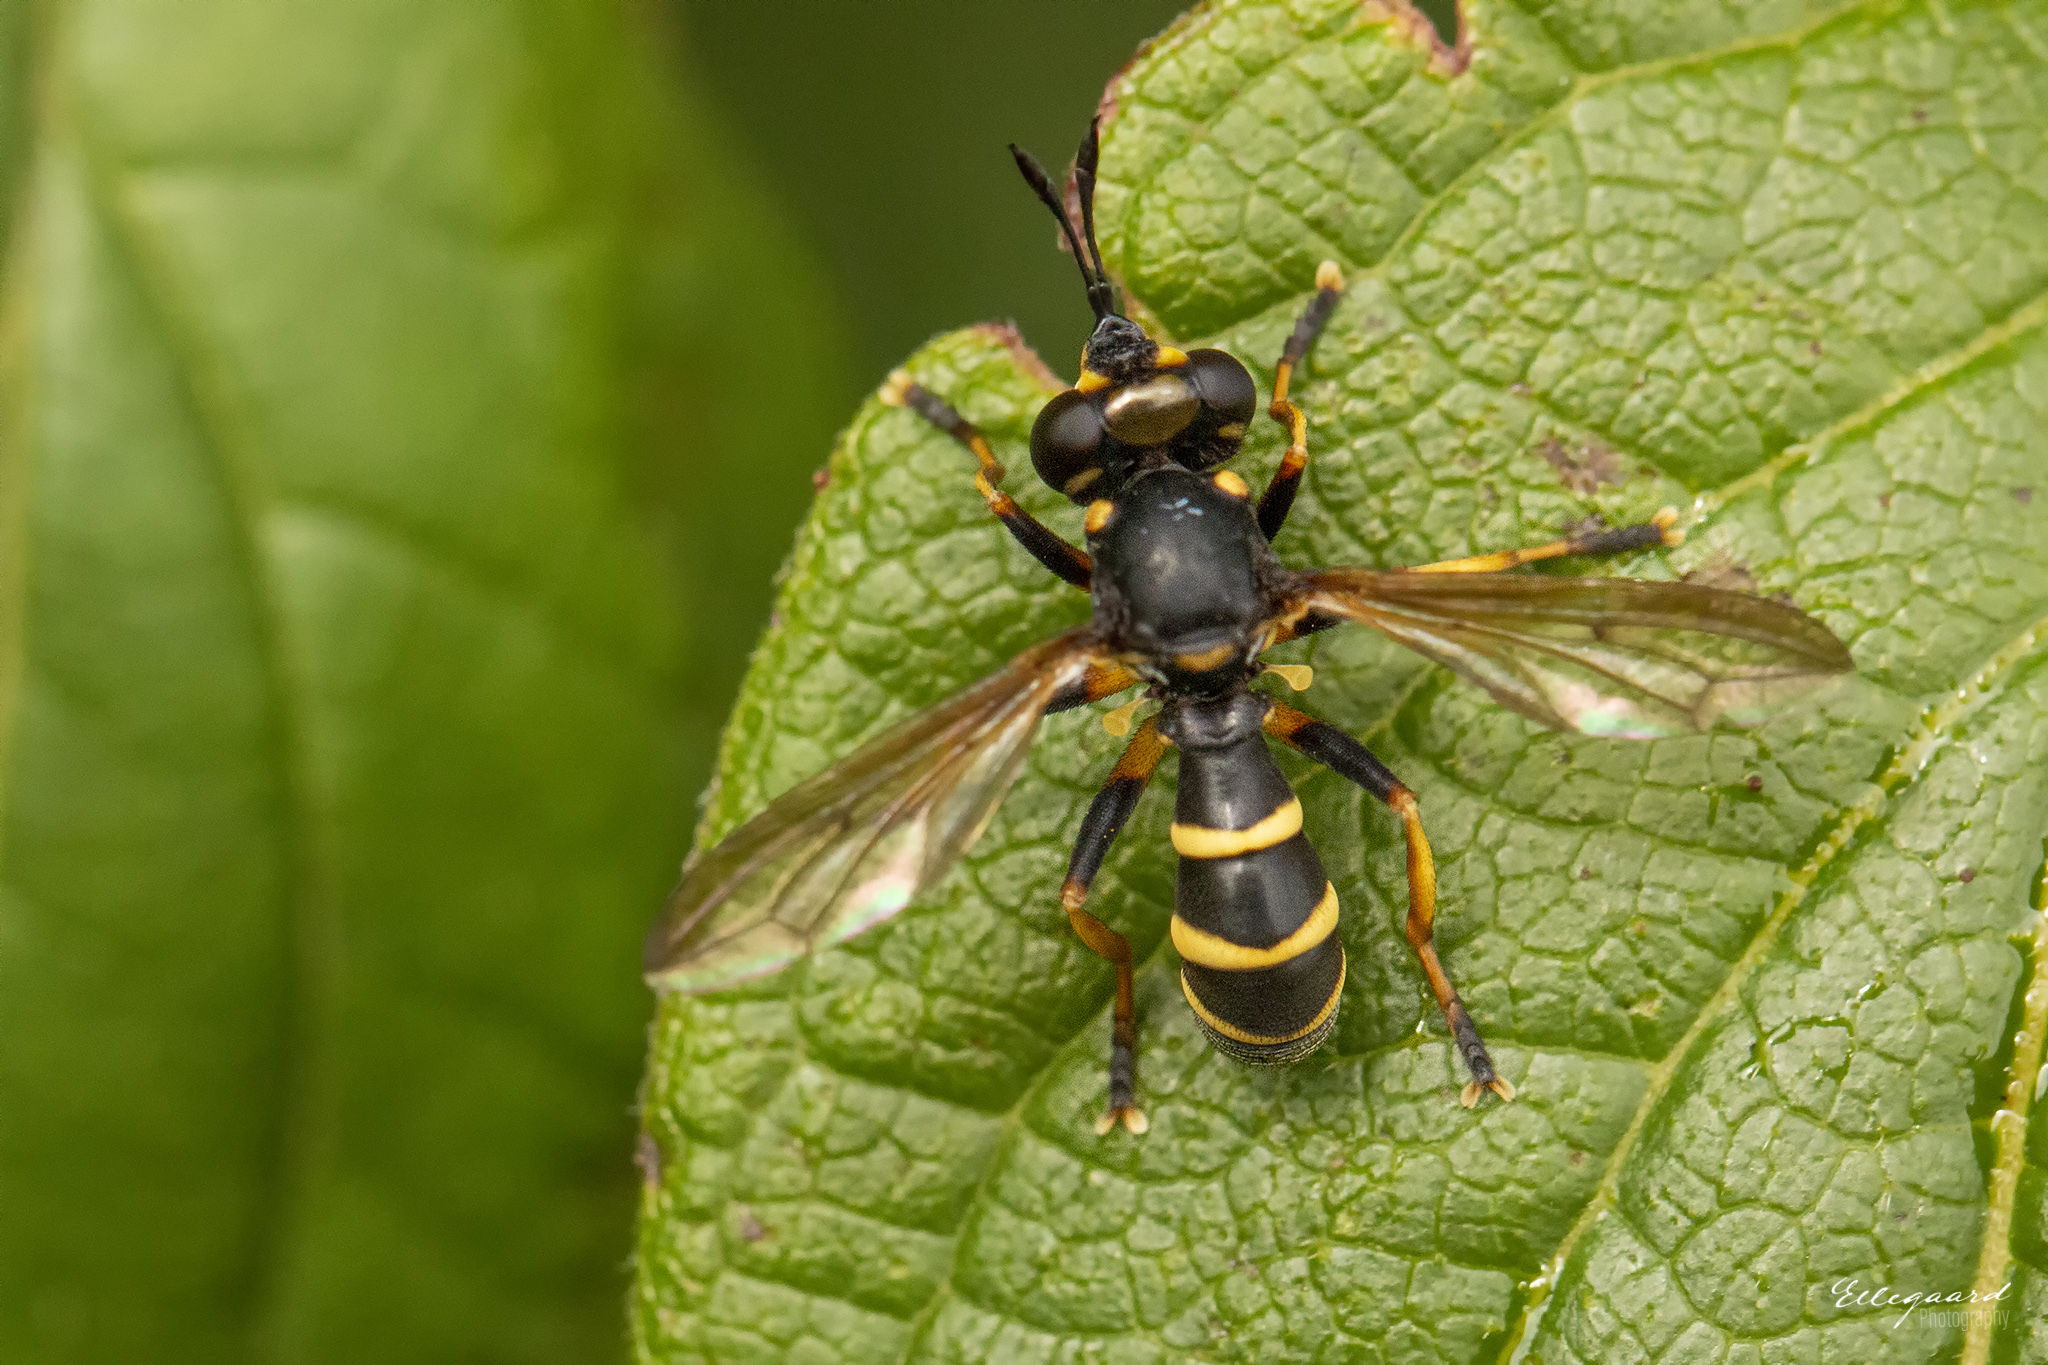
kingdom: Animalia
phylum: Arthropoda
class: Insecta
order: Diptera
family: Conopidae
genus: Conops
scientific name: Conops flavipes
